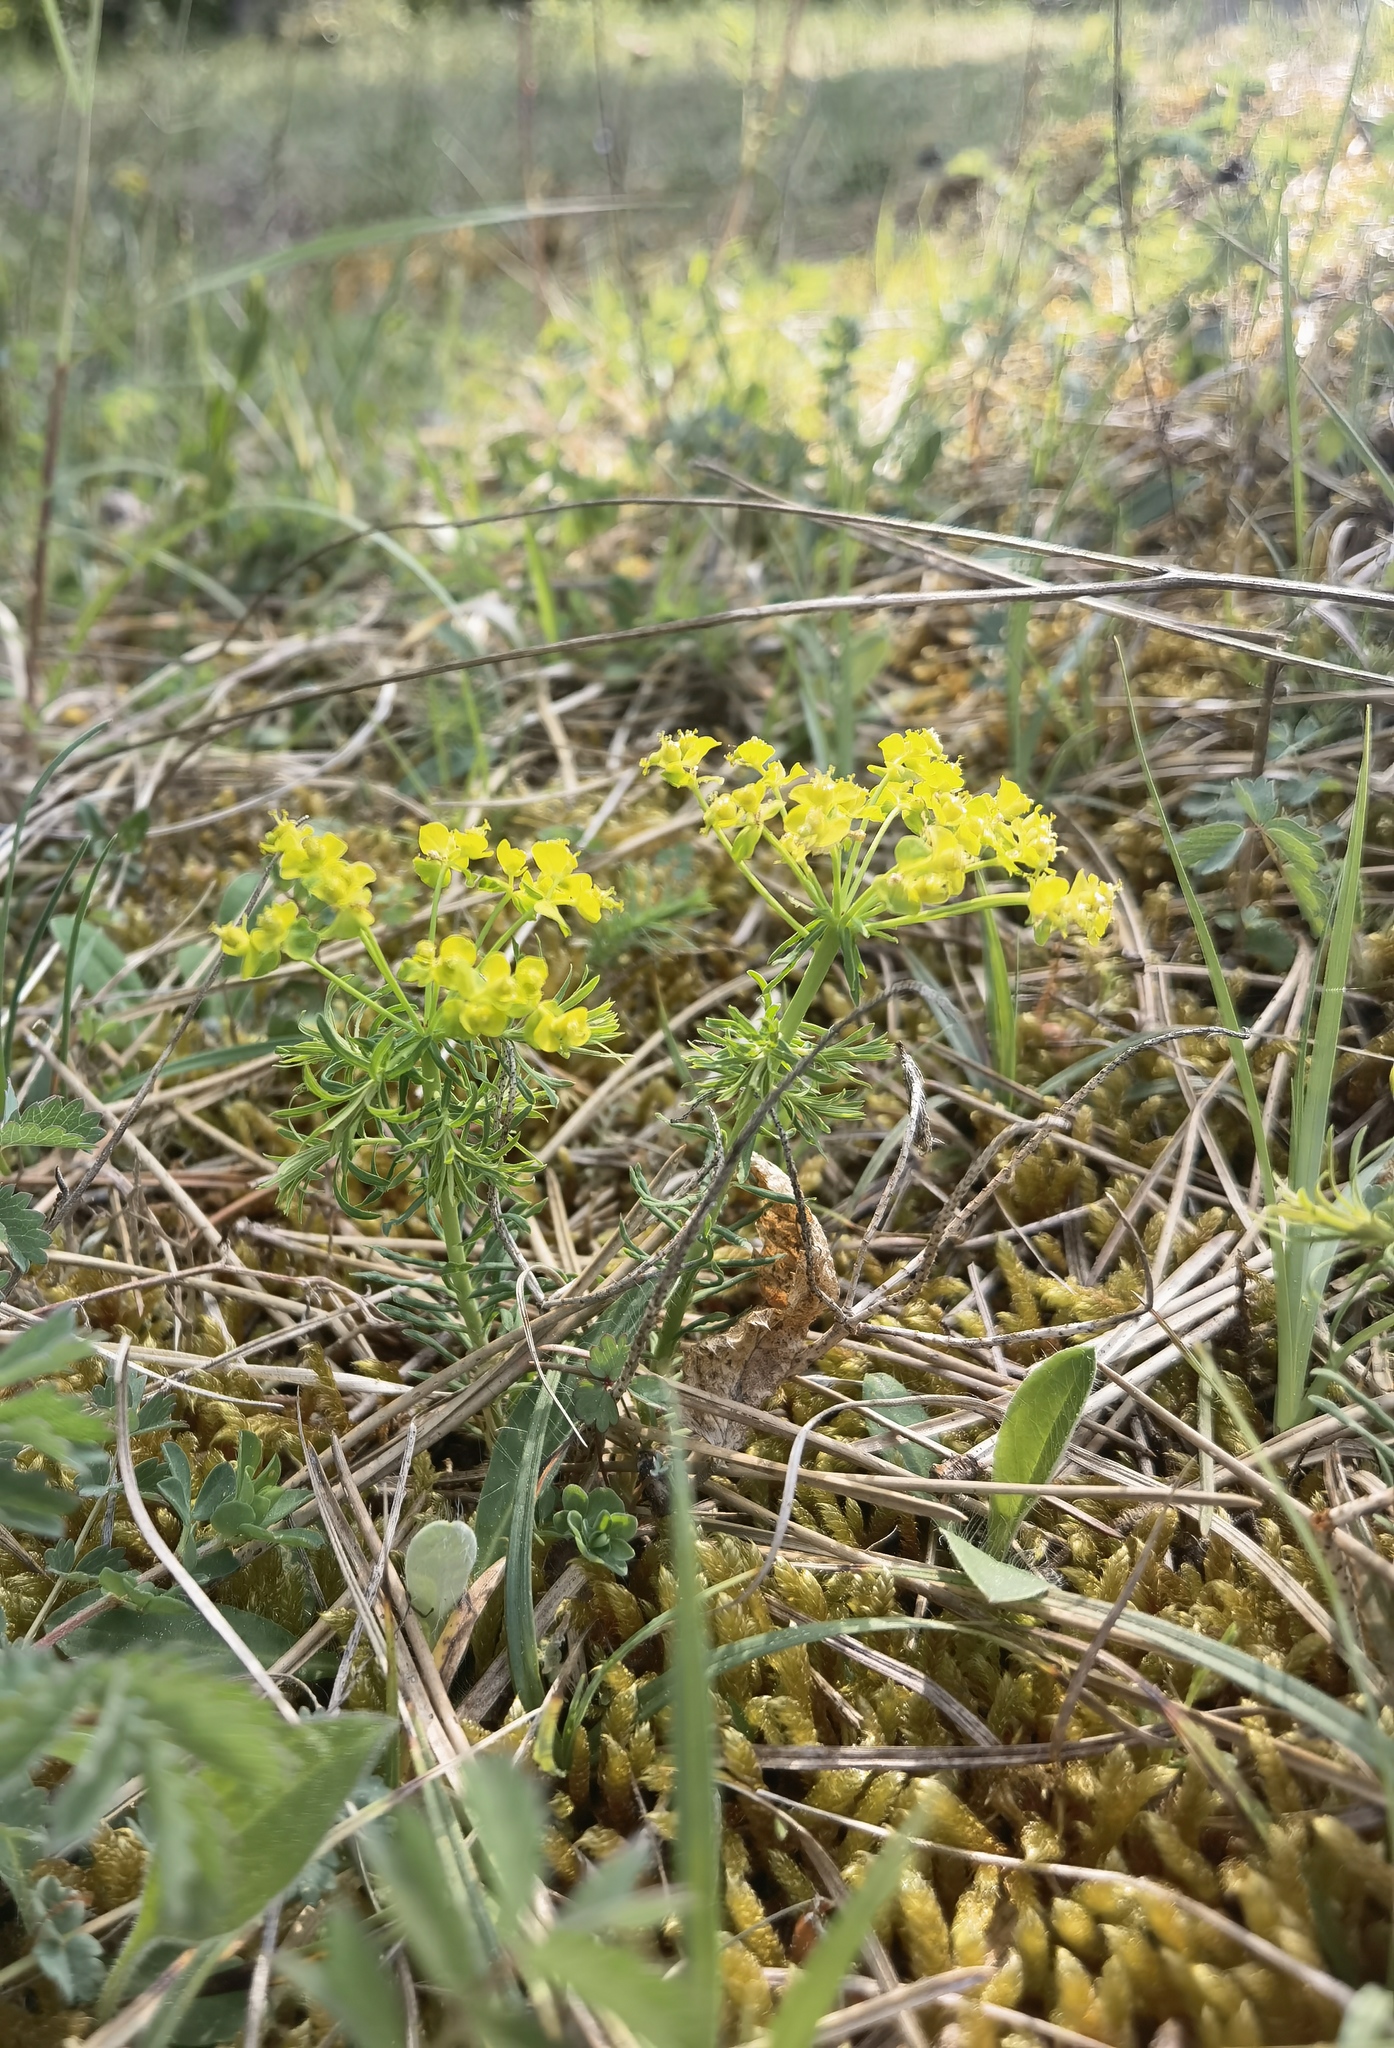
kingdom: Plantae
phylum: Tracheophyta
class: Magnoliopsida
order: Malpighiales
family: Euphorbiaceae
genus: Euphorbia
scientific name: Euphorbia cyparissias
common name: Cypress spurge
